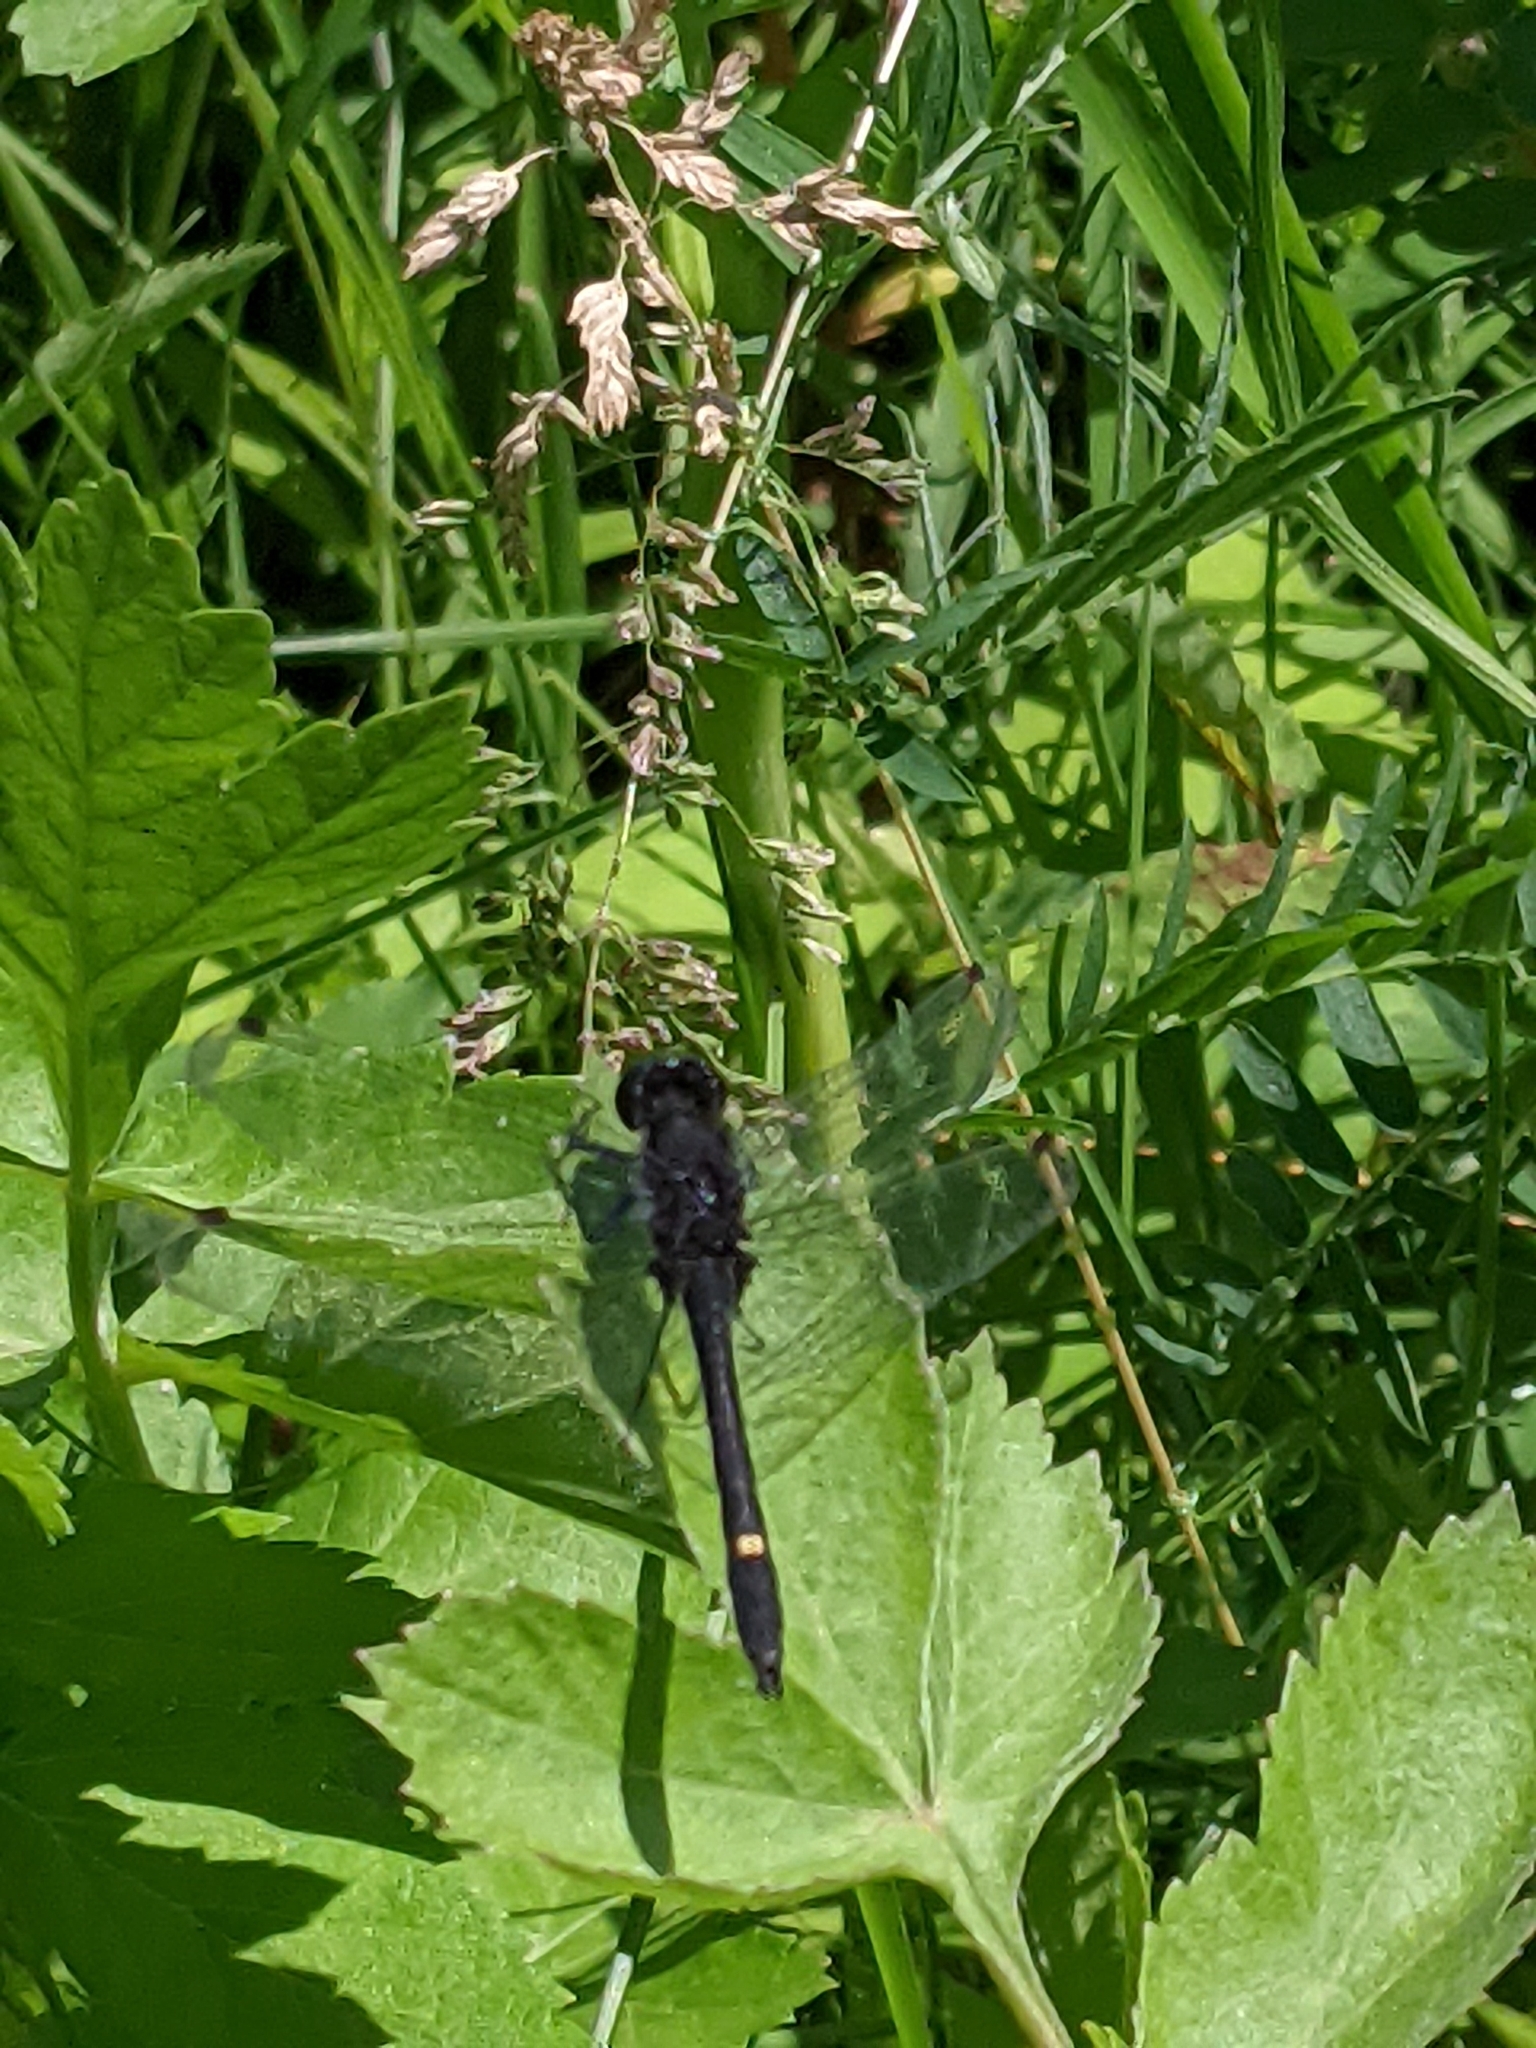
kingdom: Animalia
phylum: Arthropoda
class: Insecta
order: Odonata
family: Libellulidae
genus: Leucorrhinia
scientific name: Leucorrhinia intacta
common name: Dot-tailed whiteface
